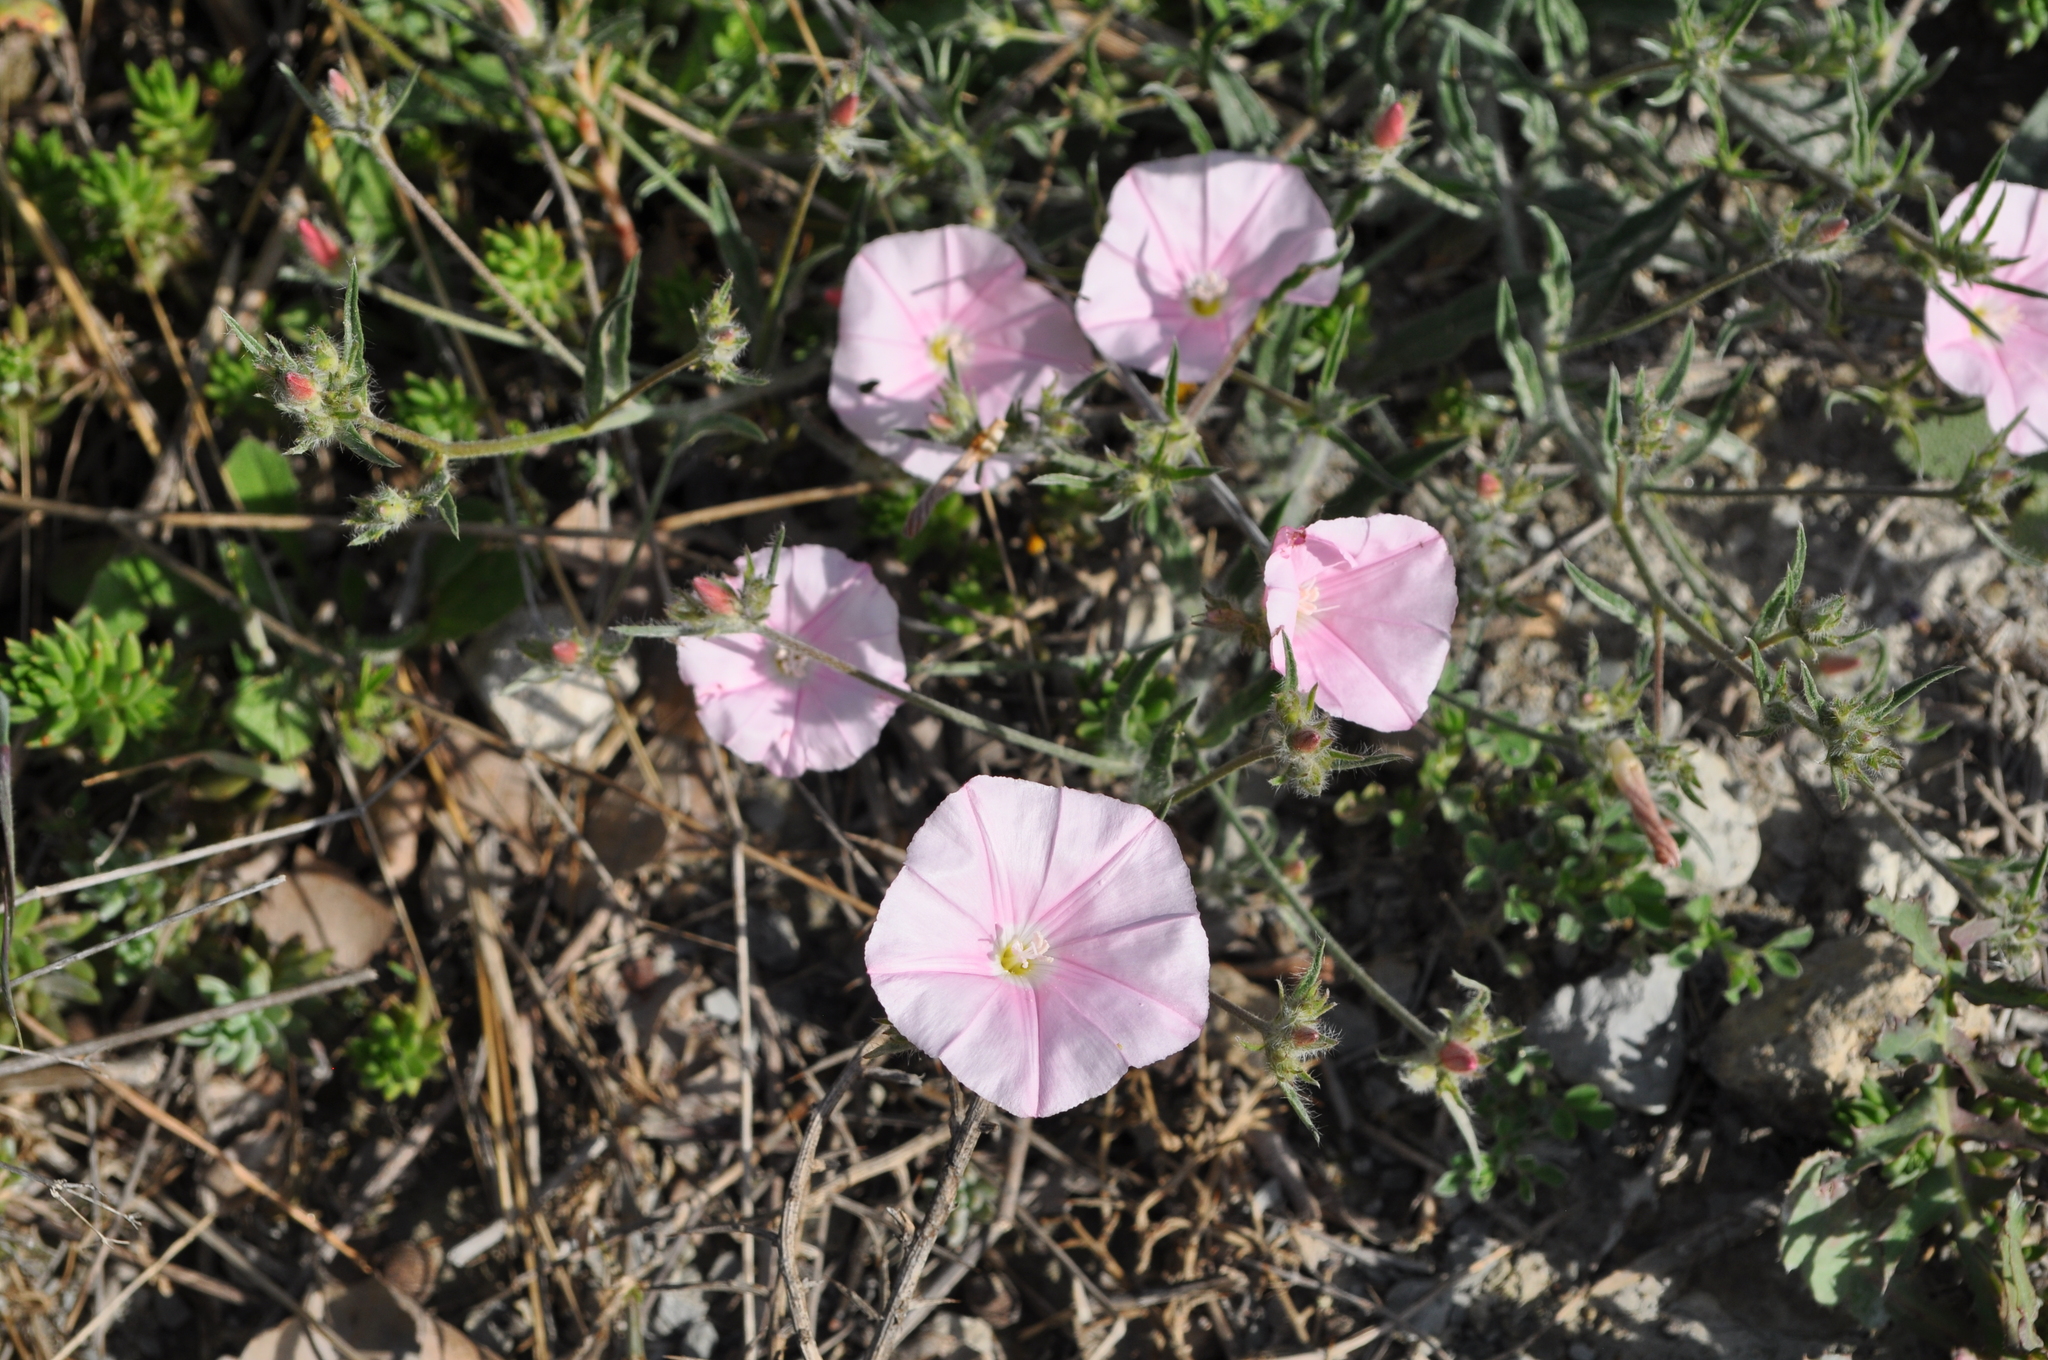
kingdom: Plantae
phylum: Tracheophyta
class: Magnoliopsida
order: Solanales
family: Convolvulaceae
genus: Convolvulus
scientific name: Convolvulus cantabrica
